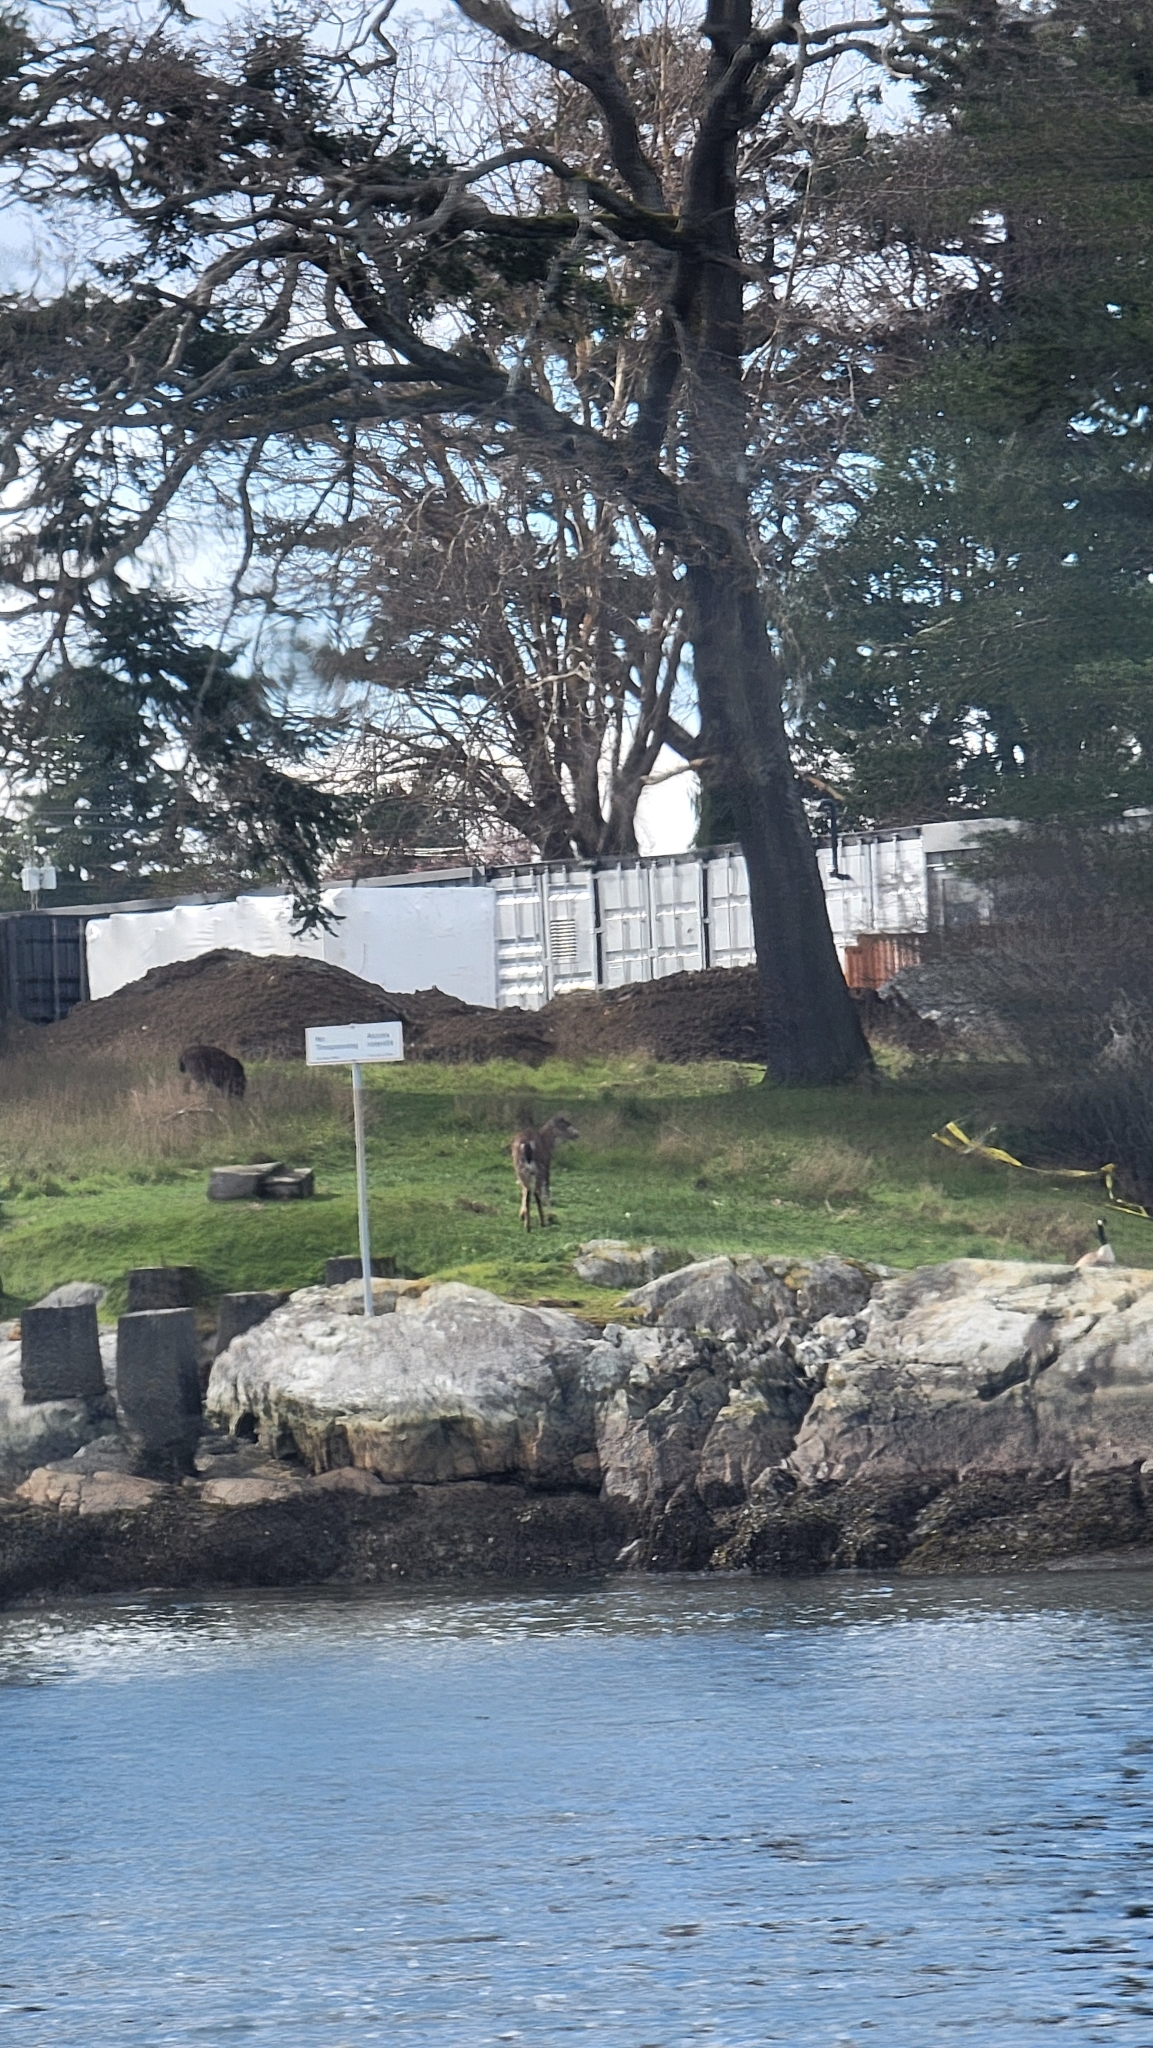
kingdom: Animalia
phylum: Chordata
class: Mammalia
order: Artiodactyla
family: Cervidae
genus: Odocoileus
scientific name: Odocoileus hemionus
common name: Mule deer
